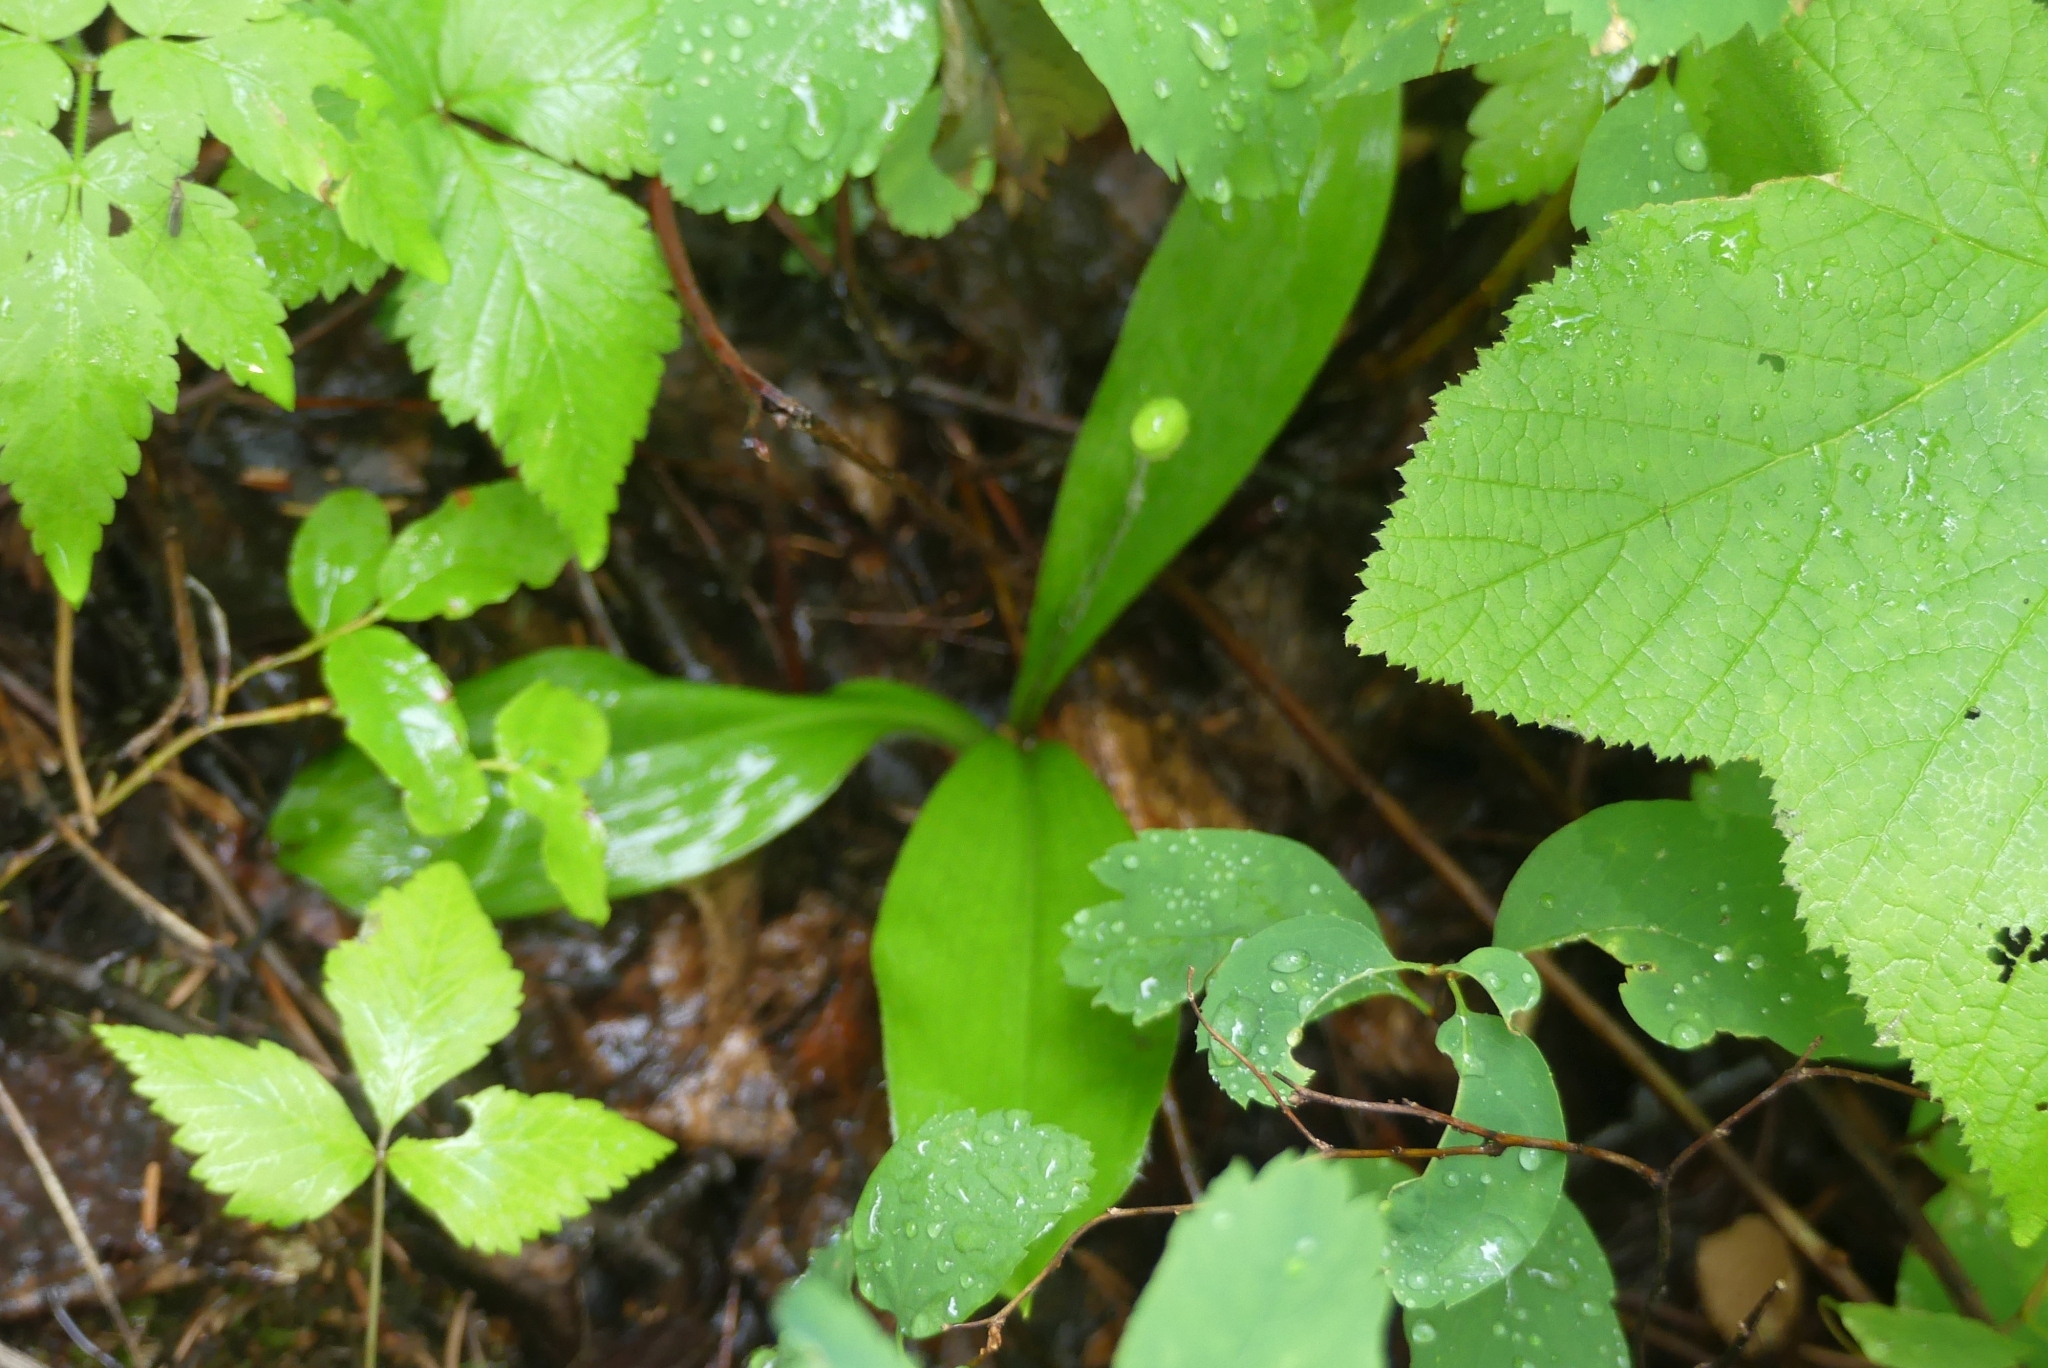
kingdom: Plantae
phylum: Tracheophyta
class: Liliopsida
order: Liliales
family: Liliaceae
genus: Clintonia
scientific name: Clintonia uniflora
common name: Queen's cup
